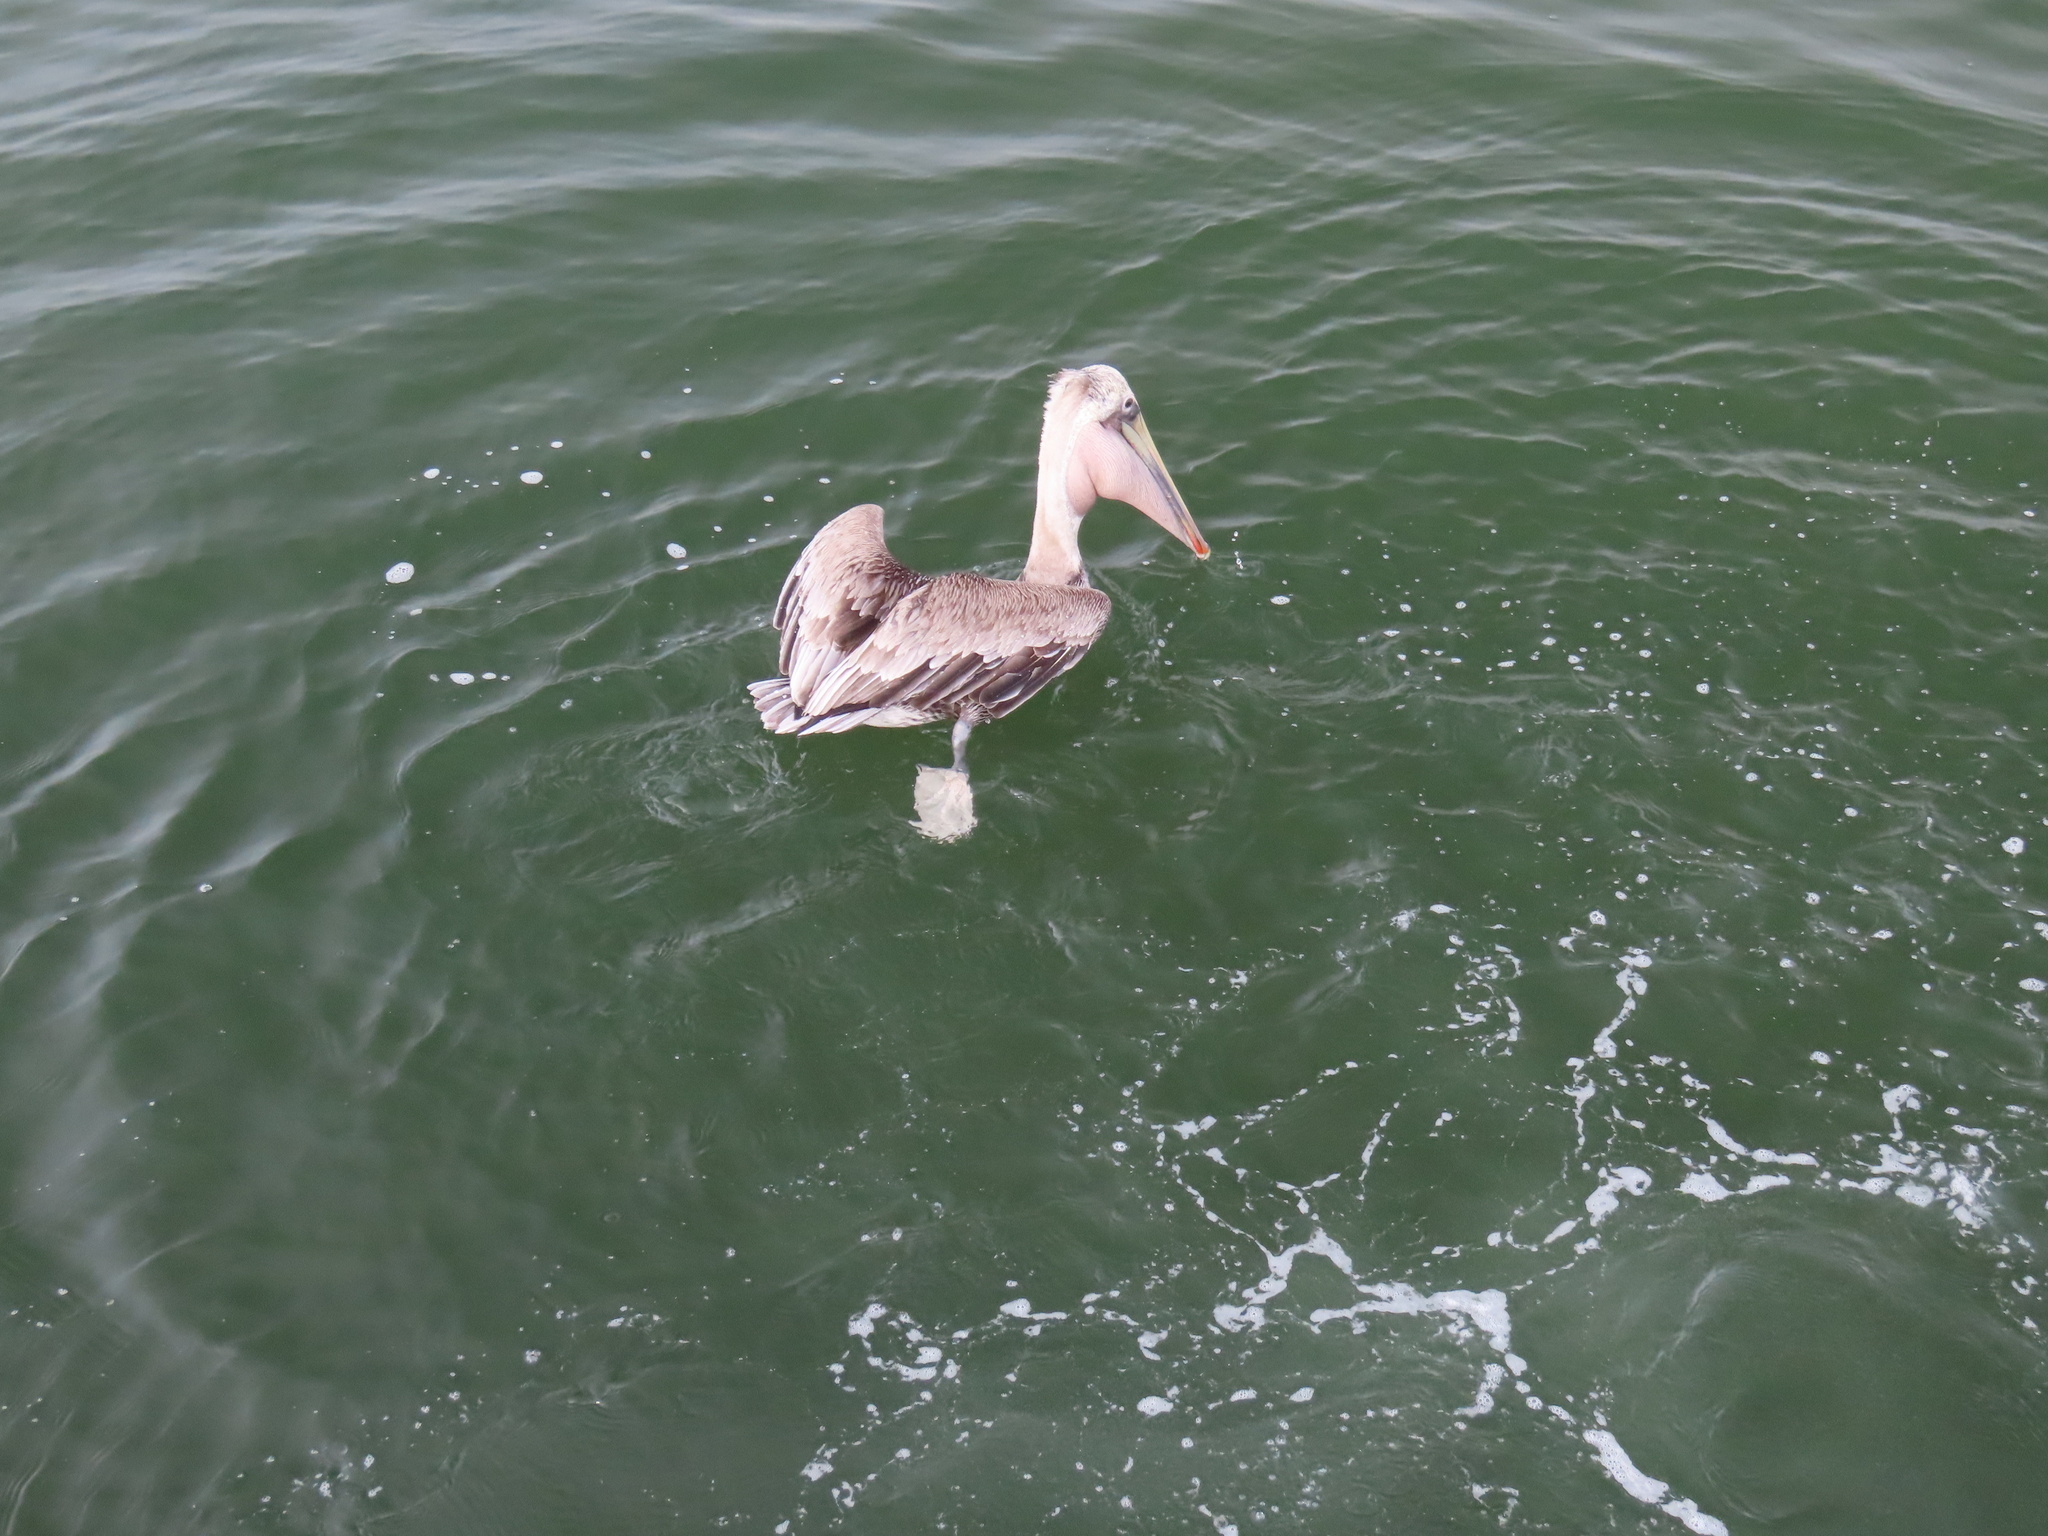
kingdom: Animalia
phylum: Chordata
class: Aves
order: Pelecaniformes
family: Pelecanidae
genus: Pelecanus
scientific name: Pelecanus occidentalis
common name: Brown pelican
